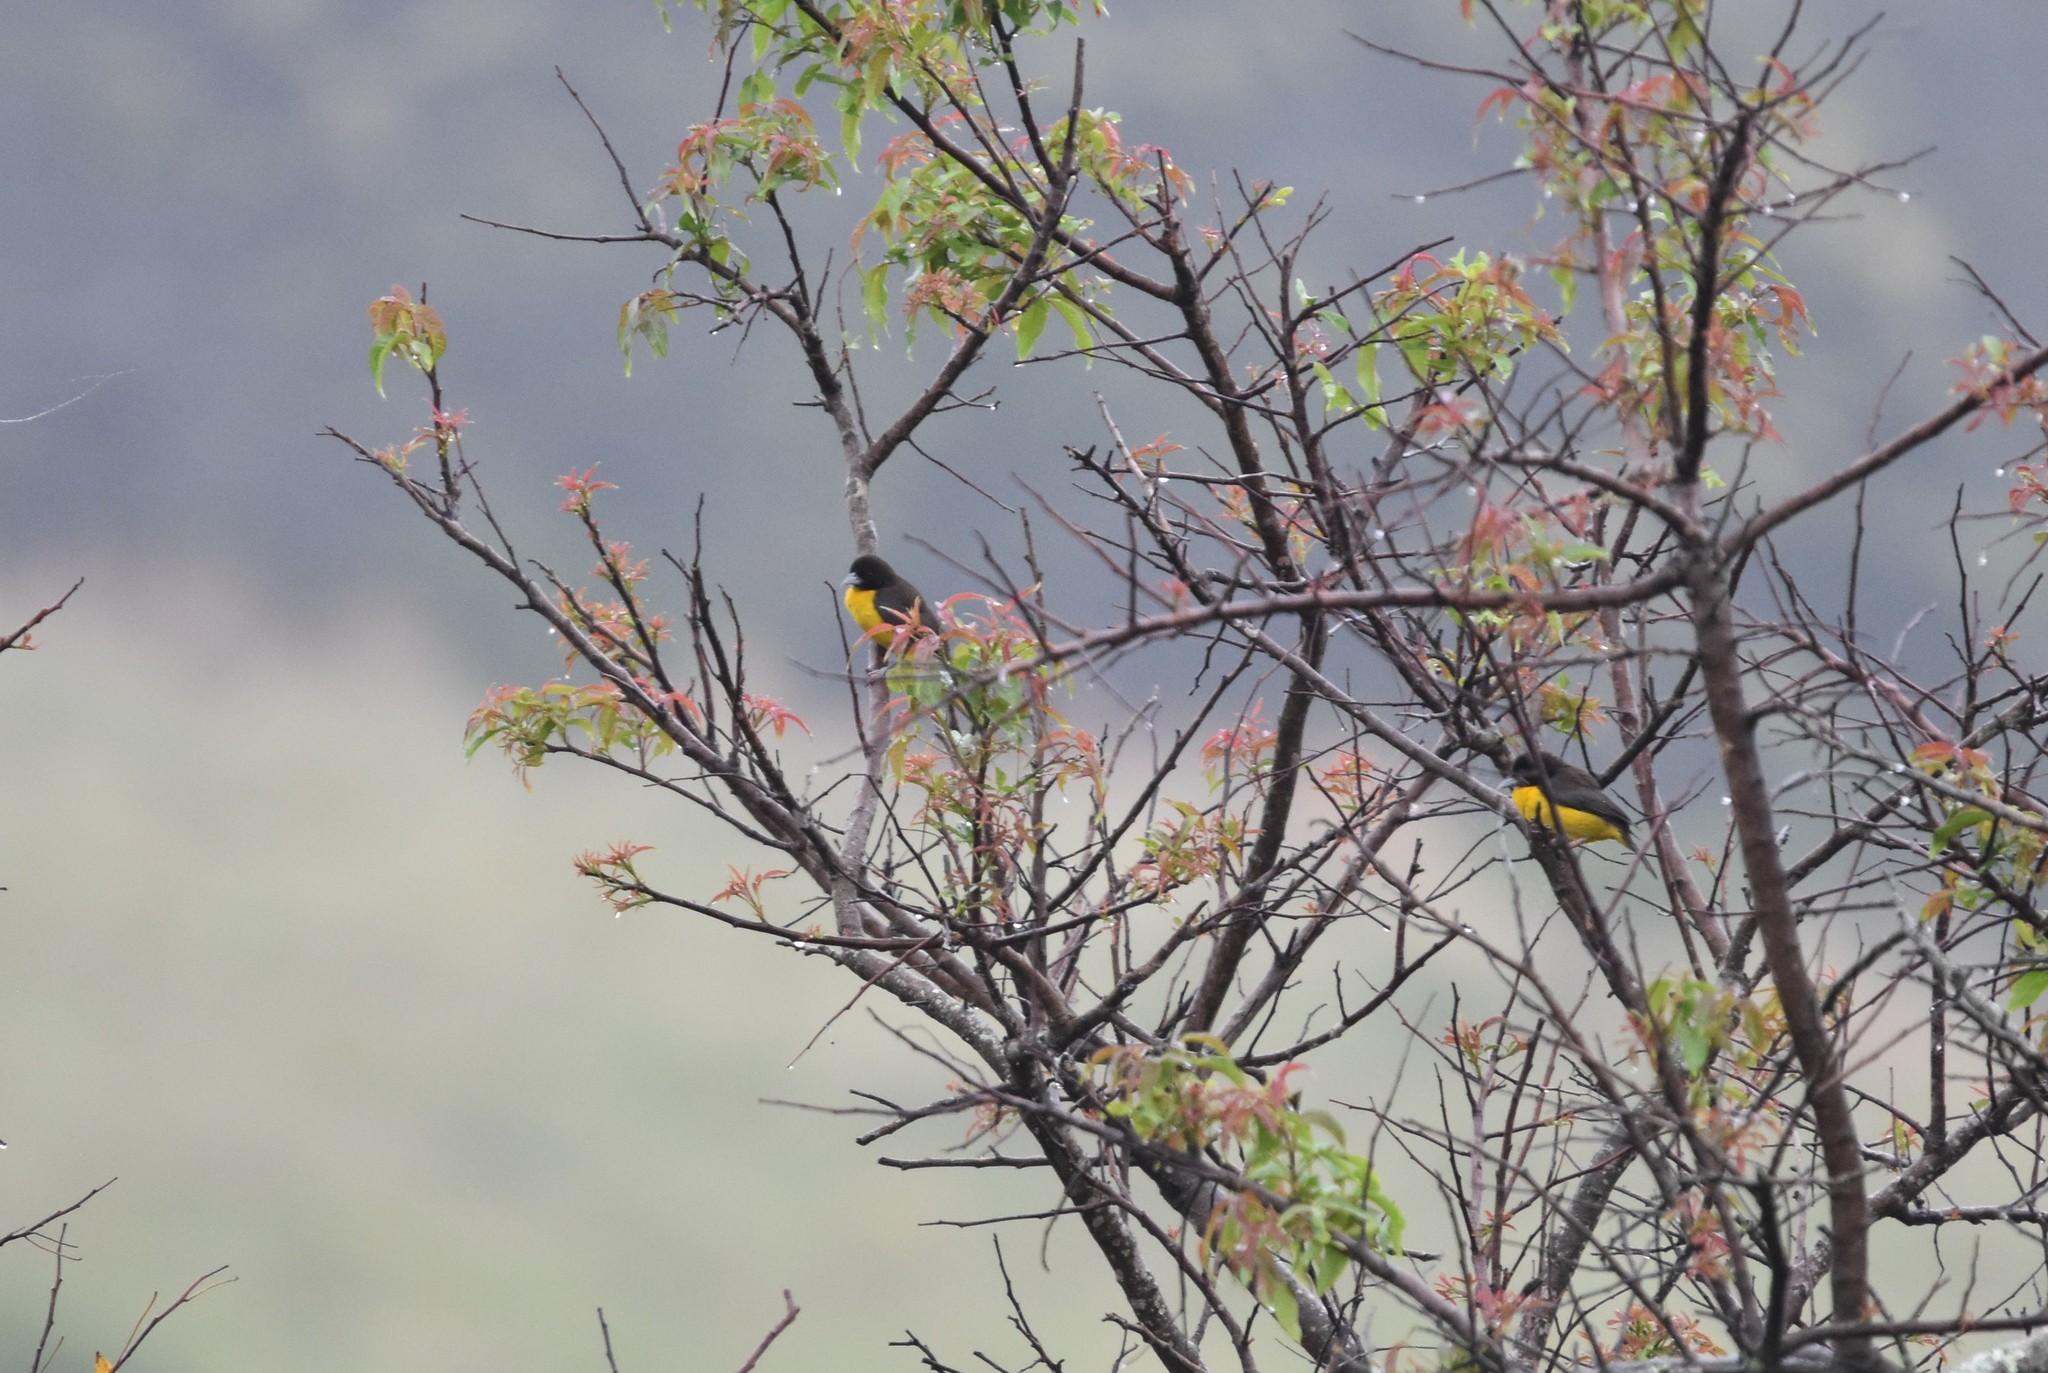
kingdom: Animalia
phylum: Chordata
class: Aves
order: Passeriformes
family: Ploceidae
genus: Ploceus
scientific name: Ploceus bicolor
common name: Dark-backed weaver
